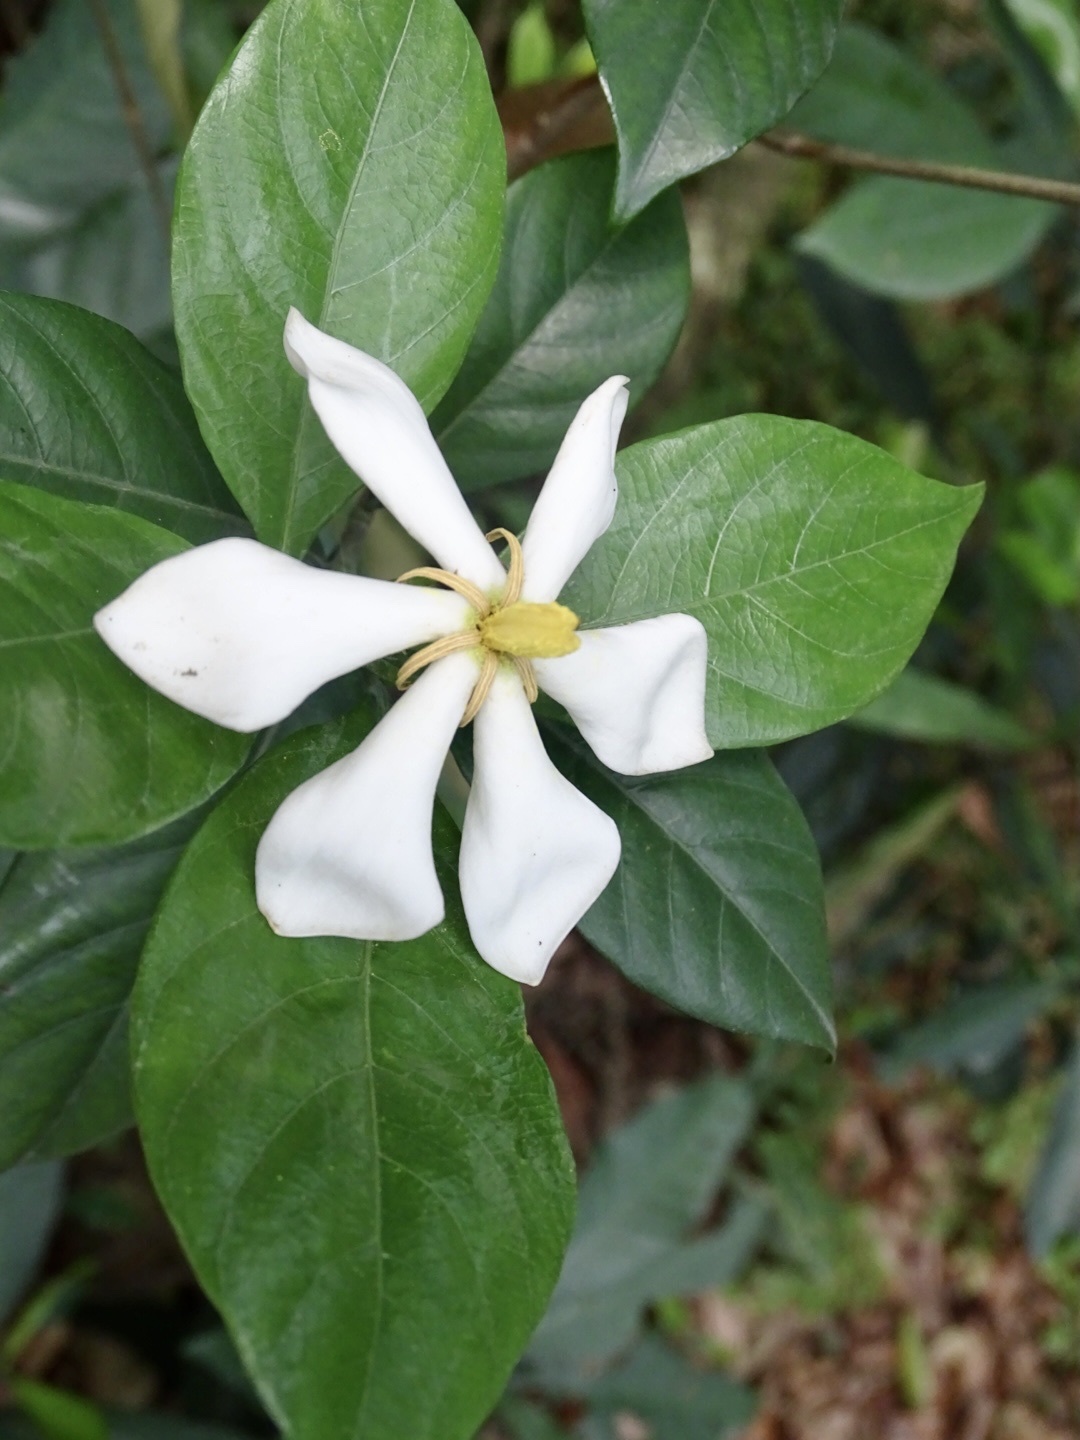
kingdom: Plantae
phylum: Tracheophyta
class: Magnoliopsida
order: Gentianales
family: Rubiaceae
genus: Gardenia
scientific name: Gardenia jasminoides
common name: Cape-jasmine
